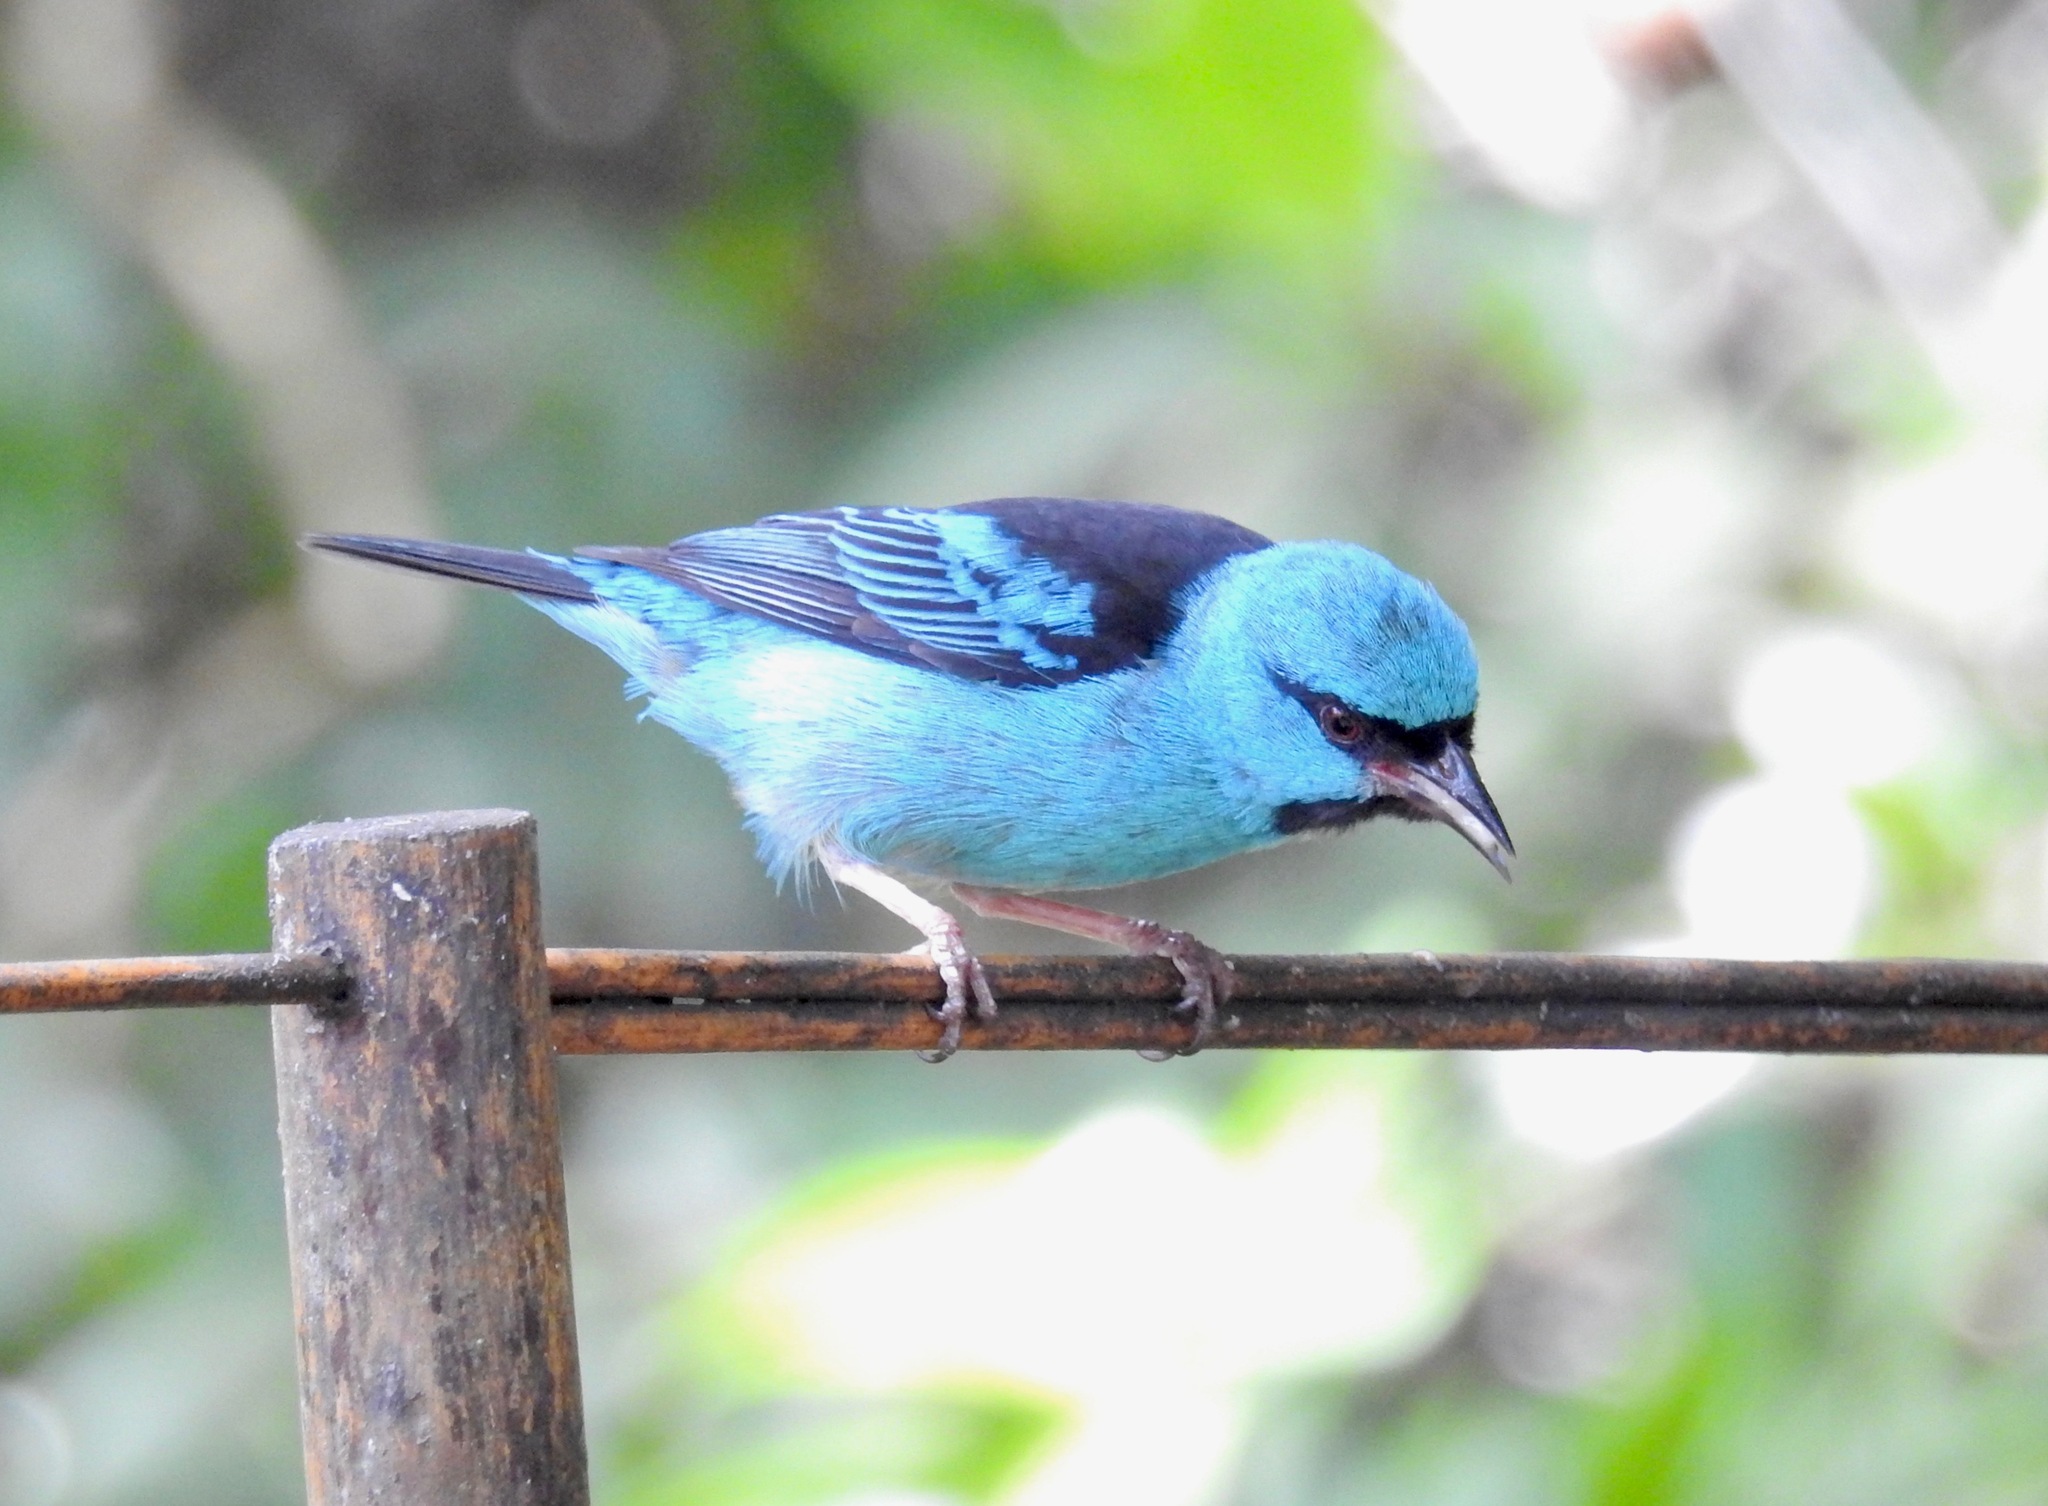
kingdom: Animalia
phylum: Chordata
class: Aves
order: Passeriformes
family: Thraupidae
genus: Dacnis
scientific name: Dacnis cayana
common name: Blue dacnis
